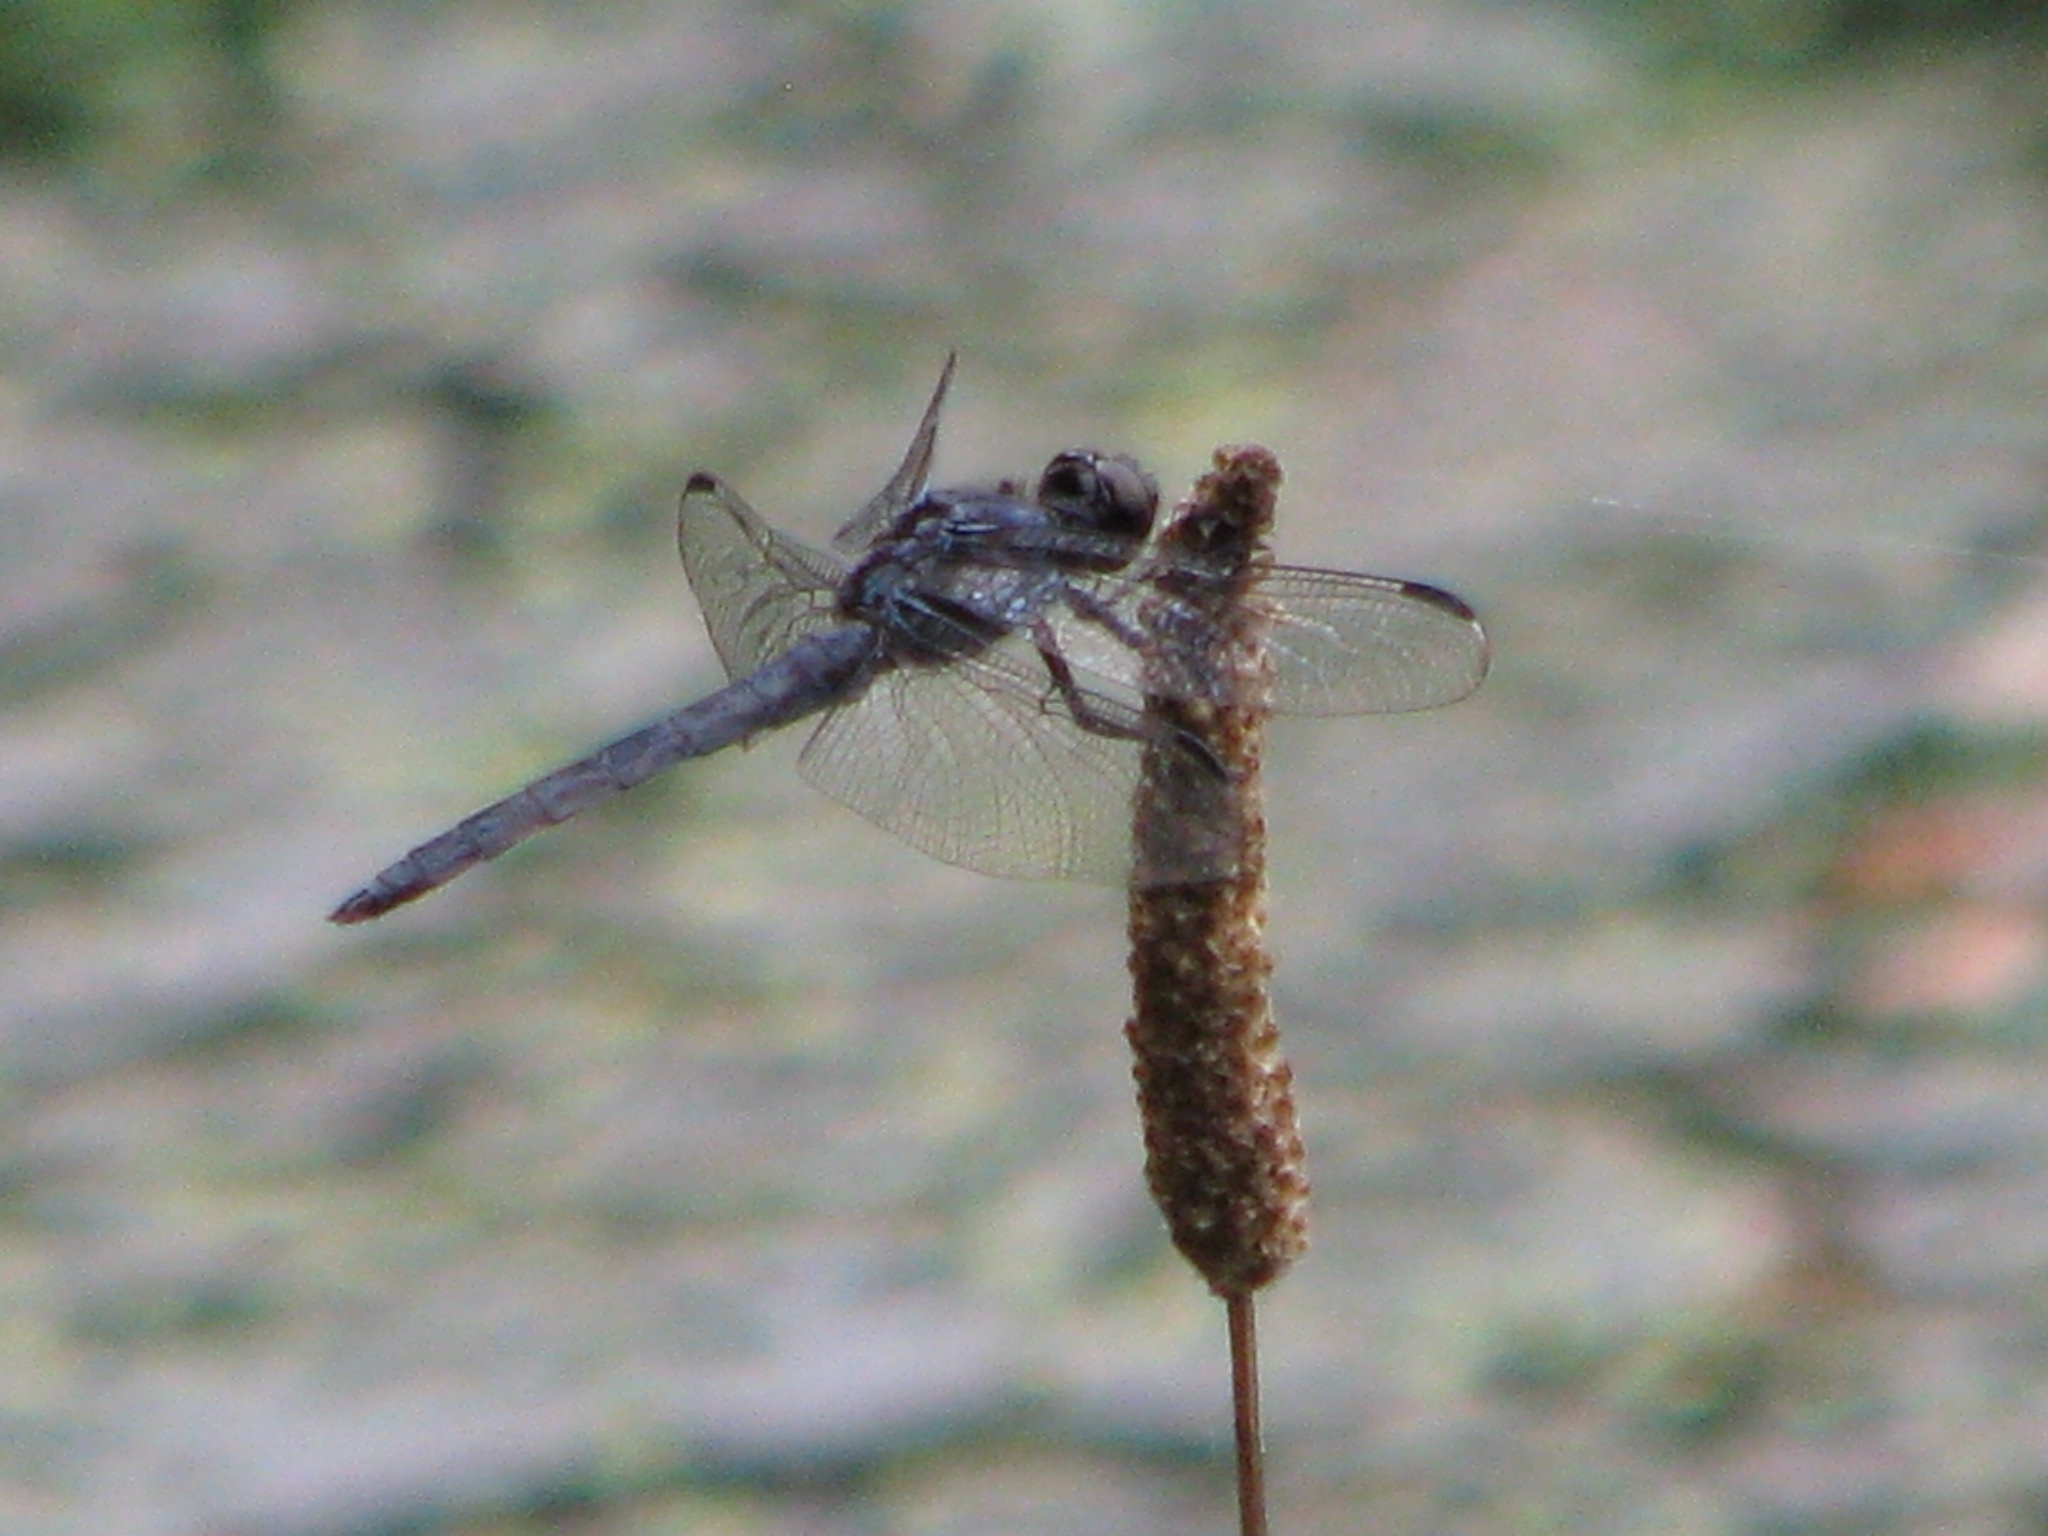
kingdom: Animalia
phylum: Arthropoda
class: Insecta
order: Odonata
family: Libellulidae
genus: Libellula
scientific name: Libellula incesta
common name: Slaty skimmer
